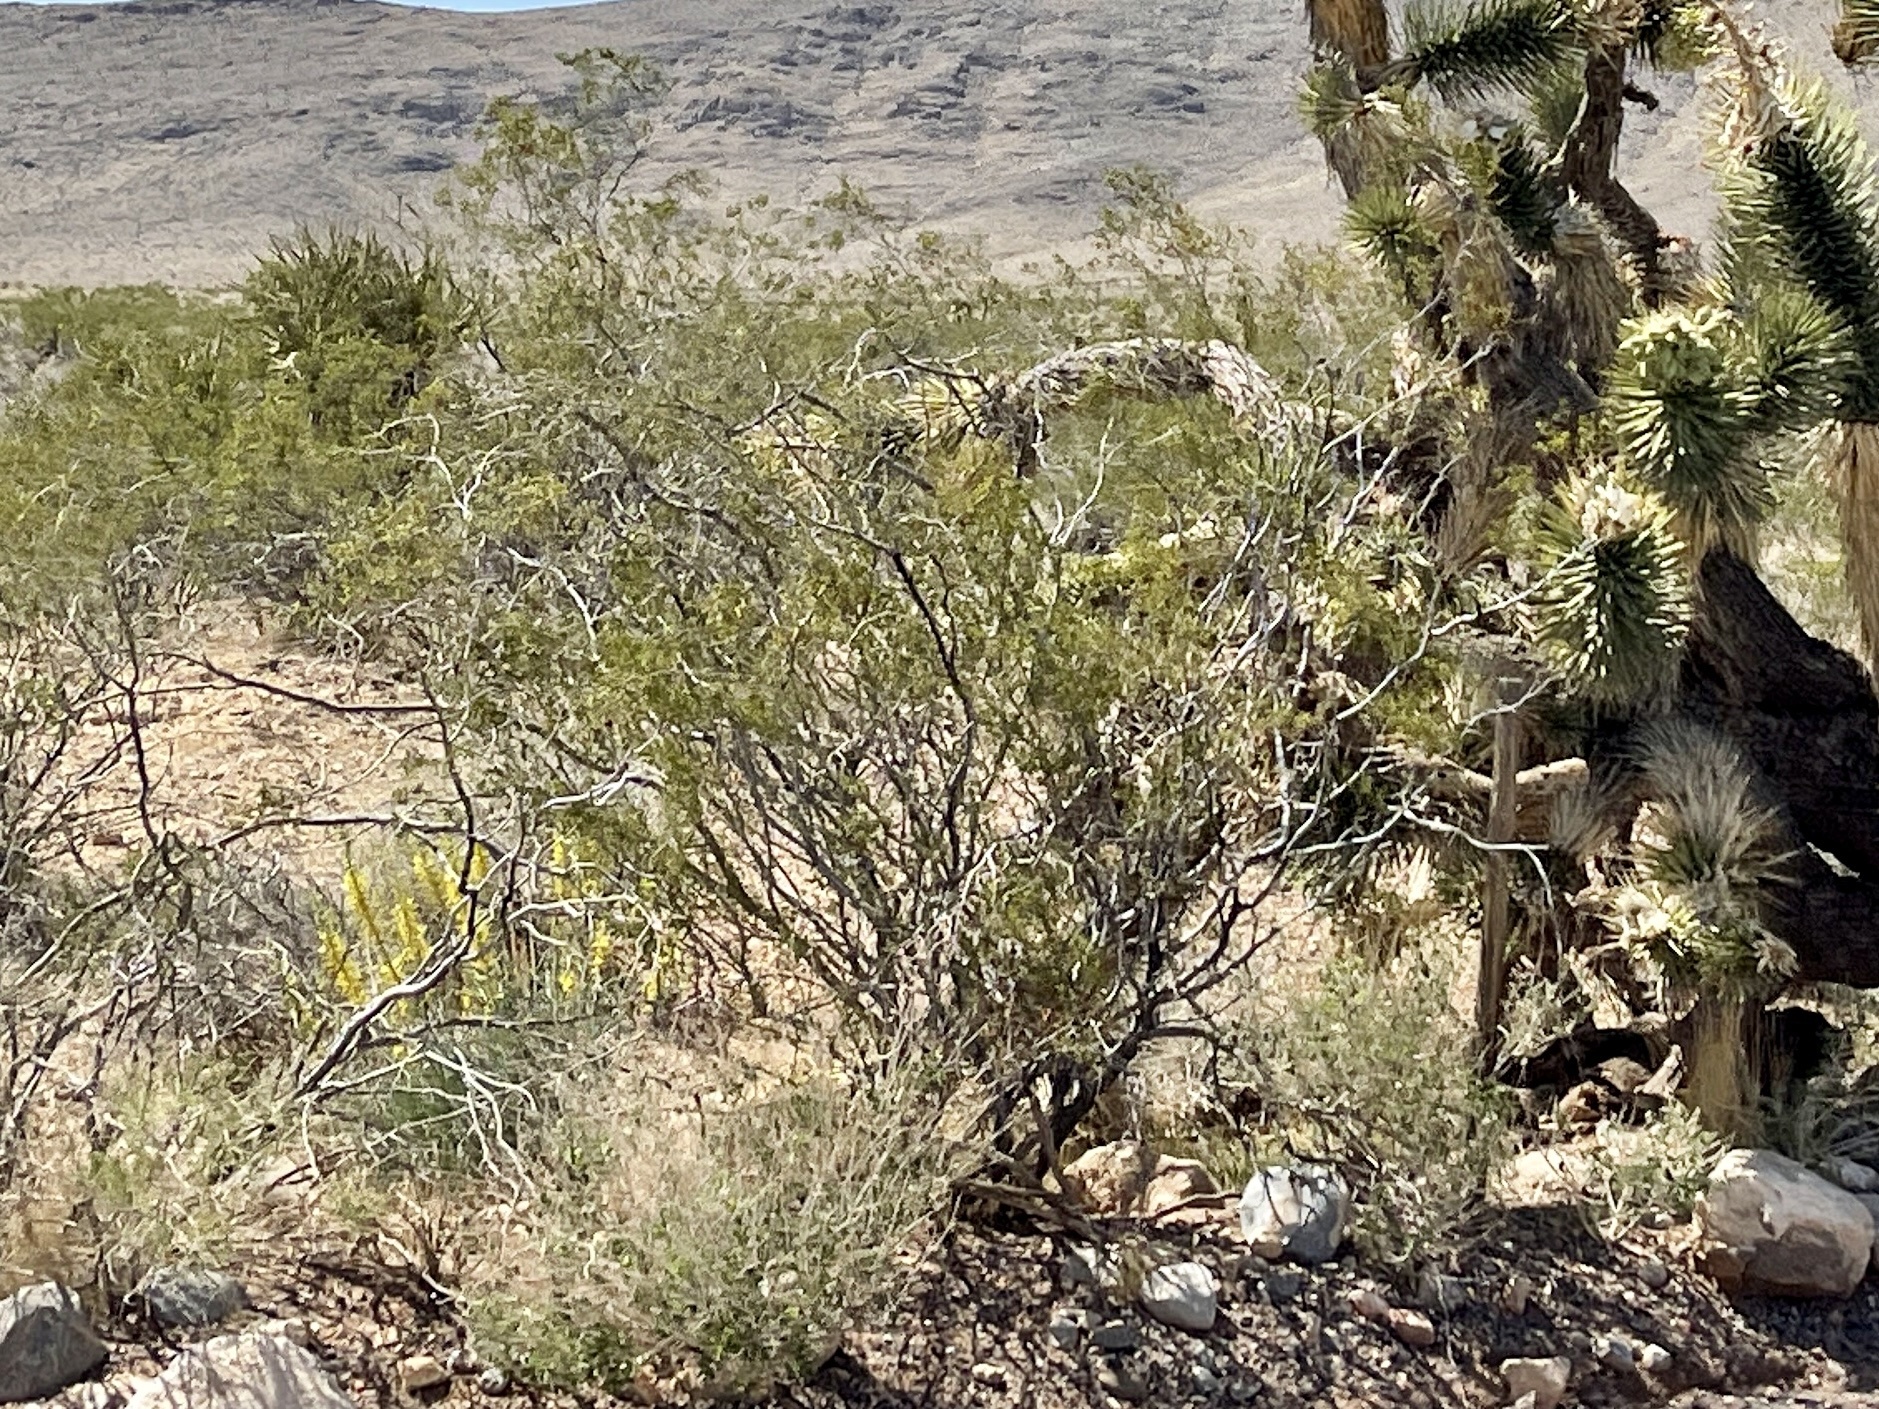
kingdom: Plantae
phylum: Tracheophyta
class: Magnoliopsida
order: Zygophyllales
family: Zygophyllaceae
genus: Larrea
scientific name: Larrea tridentata
